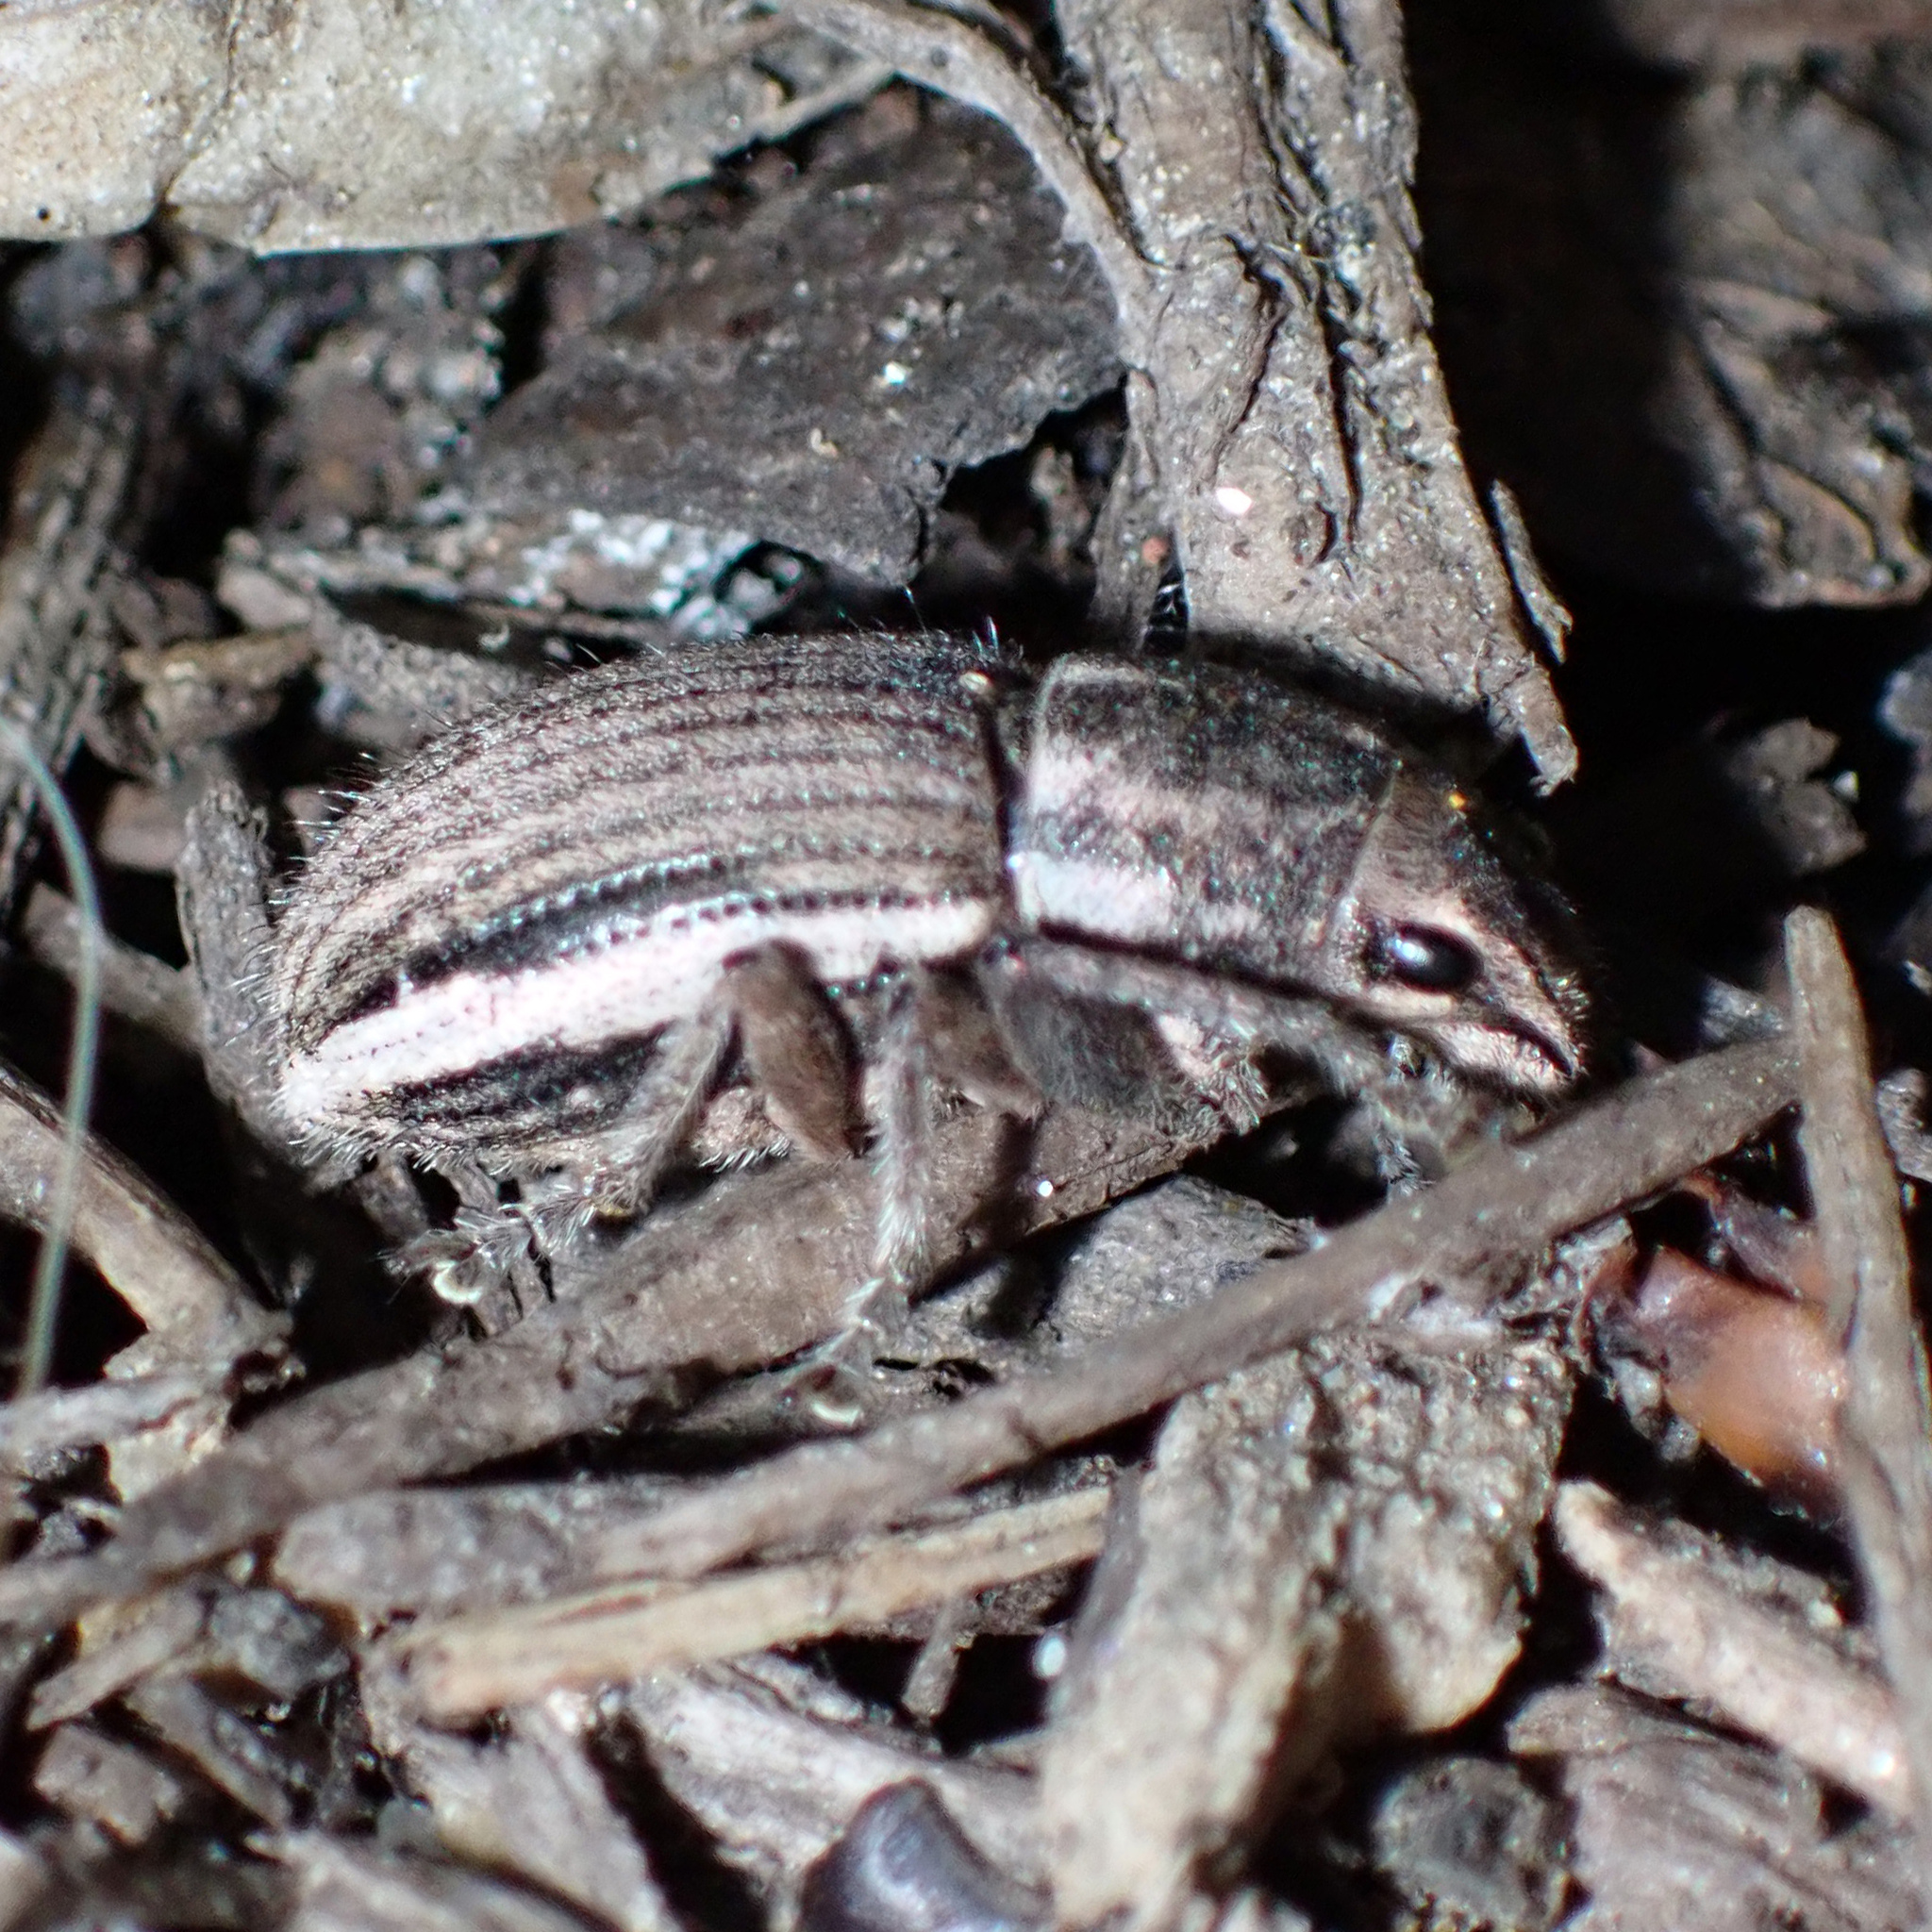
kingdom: Animalia
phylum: Arthropoda
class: Insecta
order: Coleoptera
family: Curculionidae
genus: Naupactus
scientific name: Naupactus leucoloma
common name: Whitefringed beetle
